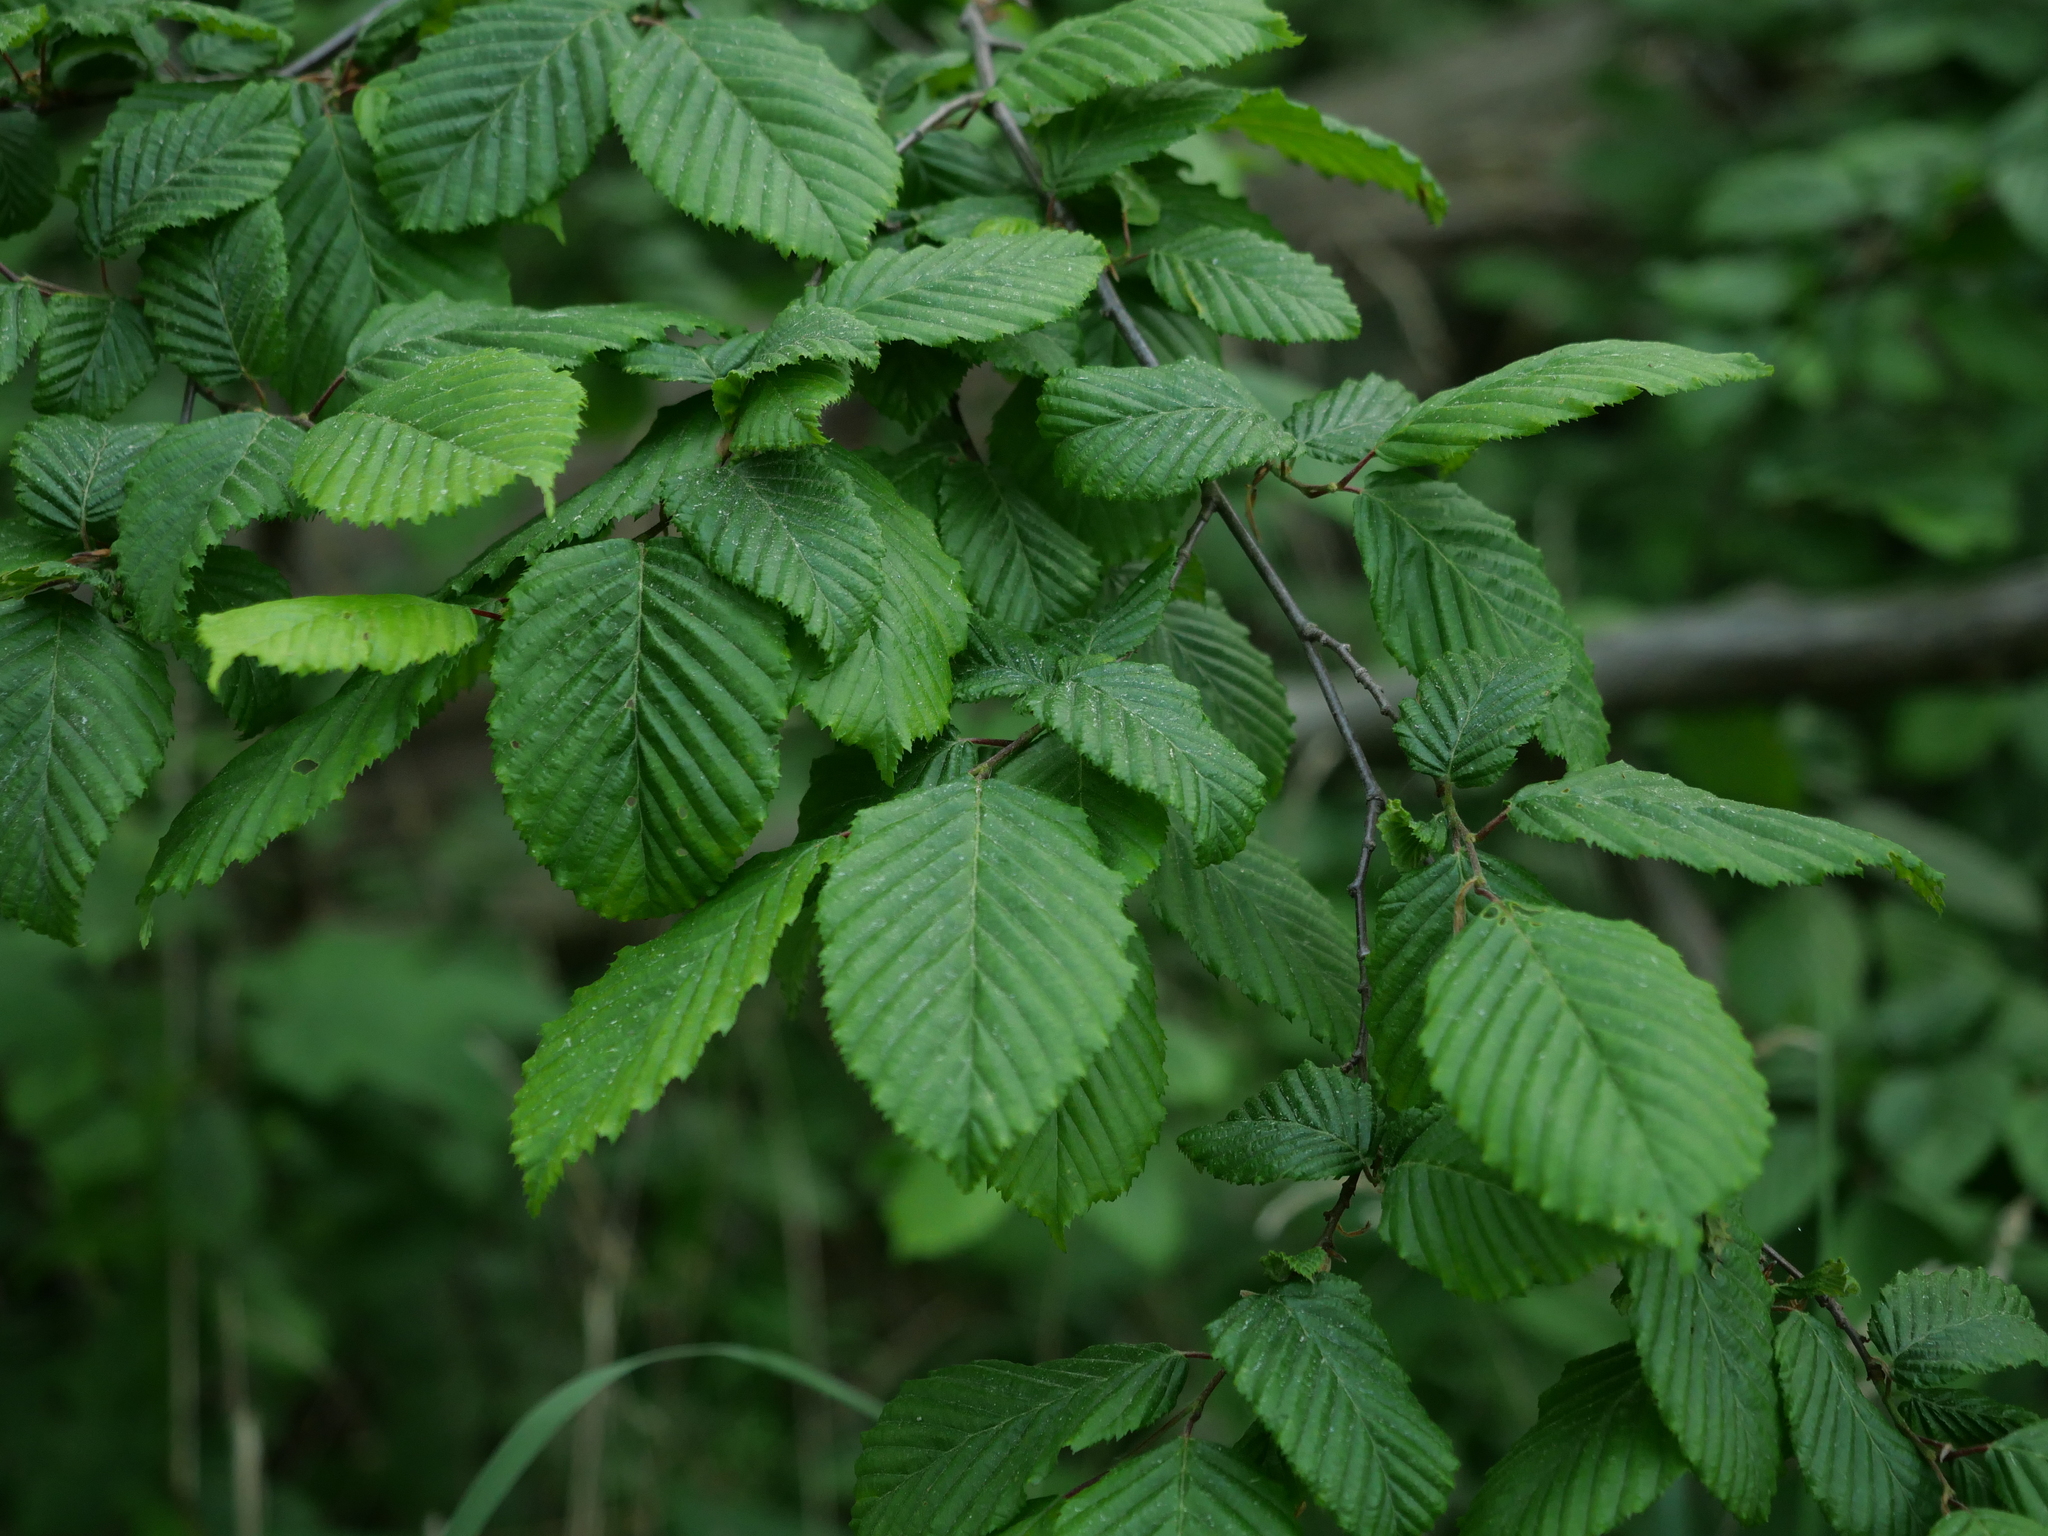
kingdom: Plantae
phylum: Tracheophyta
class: Magnoliopsida
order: Fagales
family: Betulaceae
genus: Carpinus
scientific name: Carpinus betulus
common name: Hornbeam
